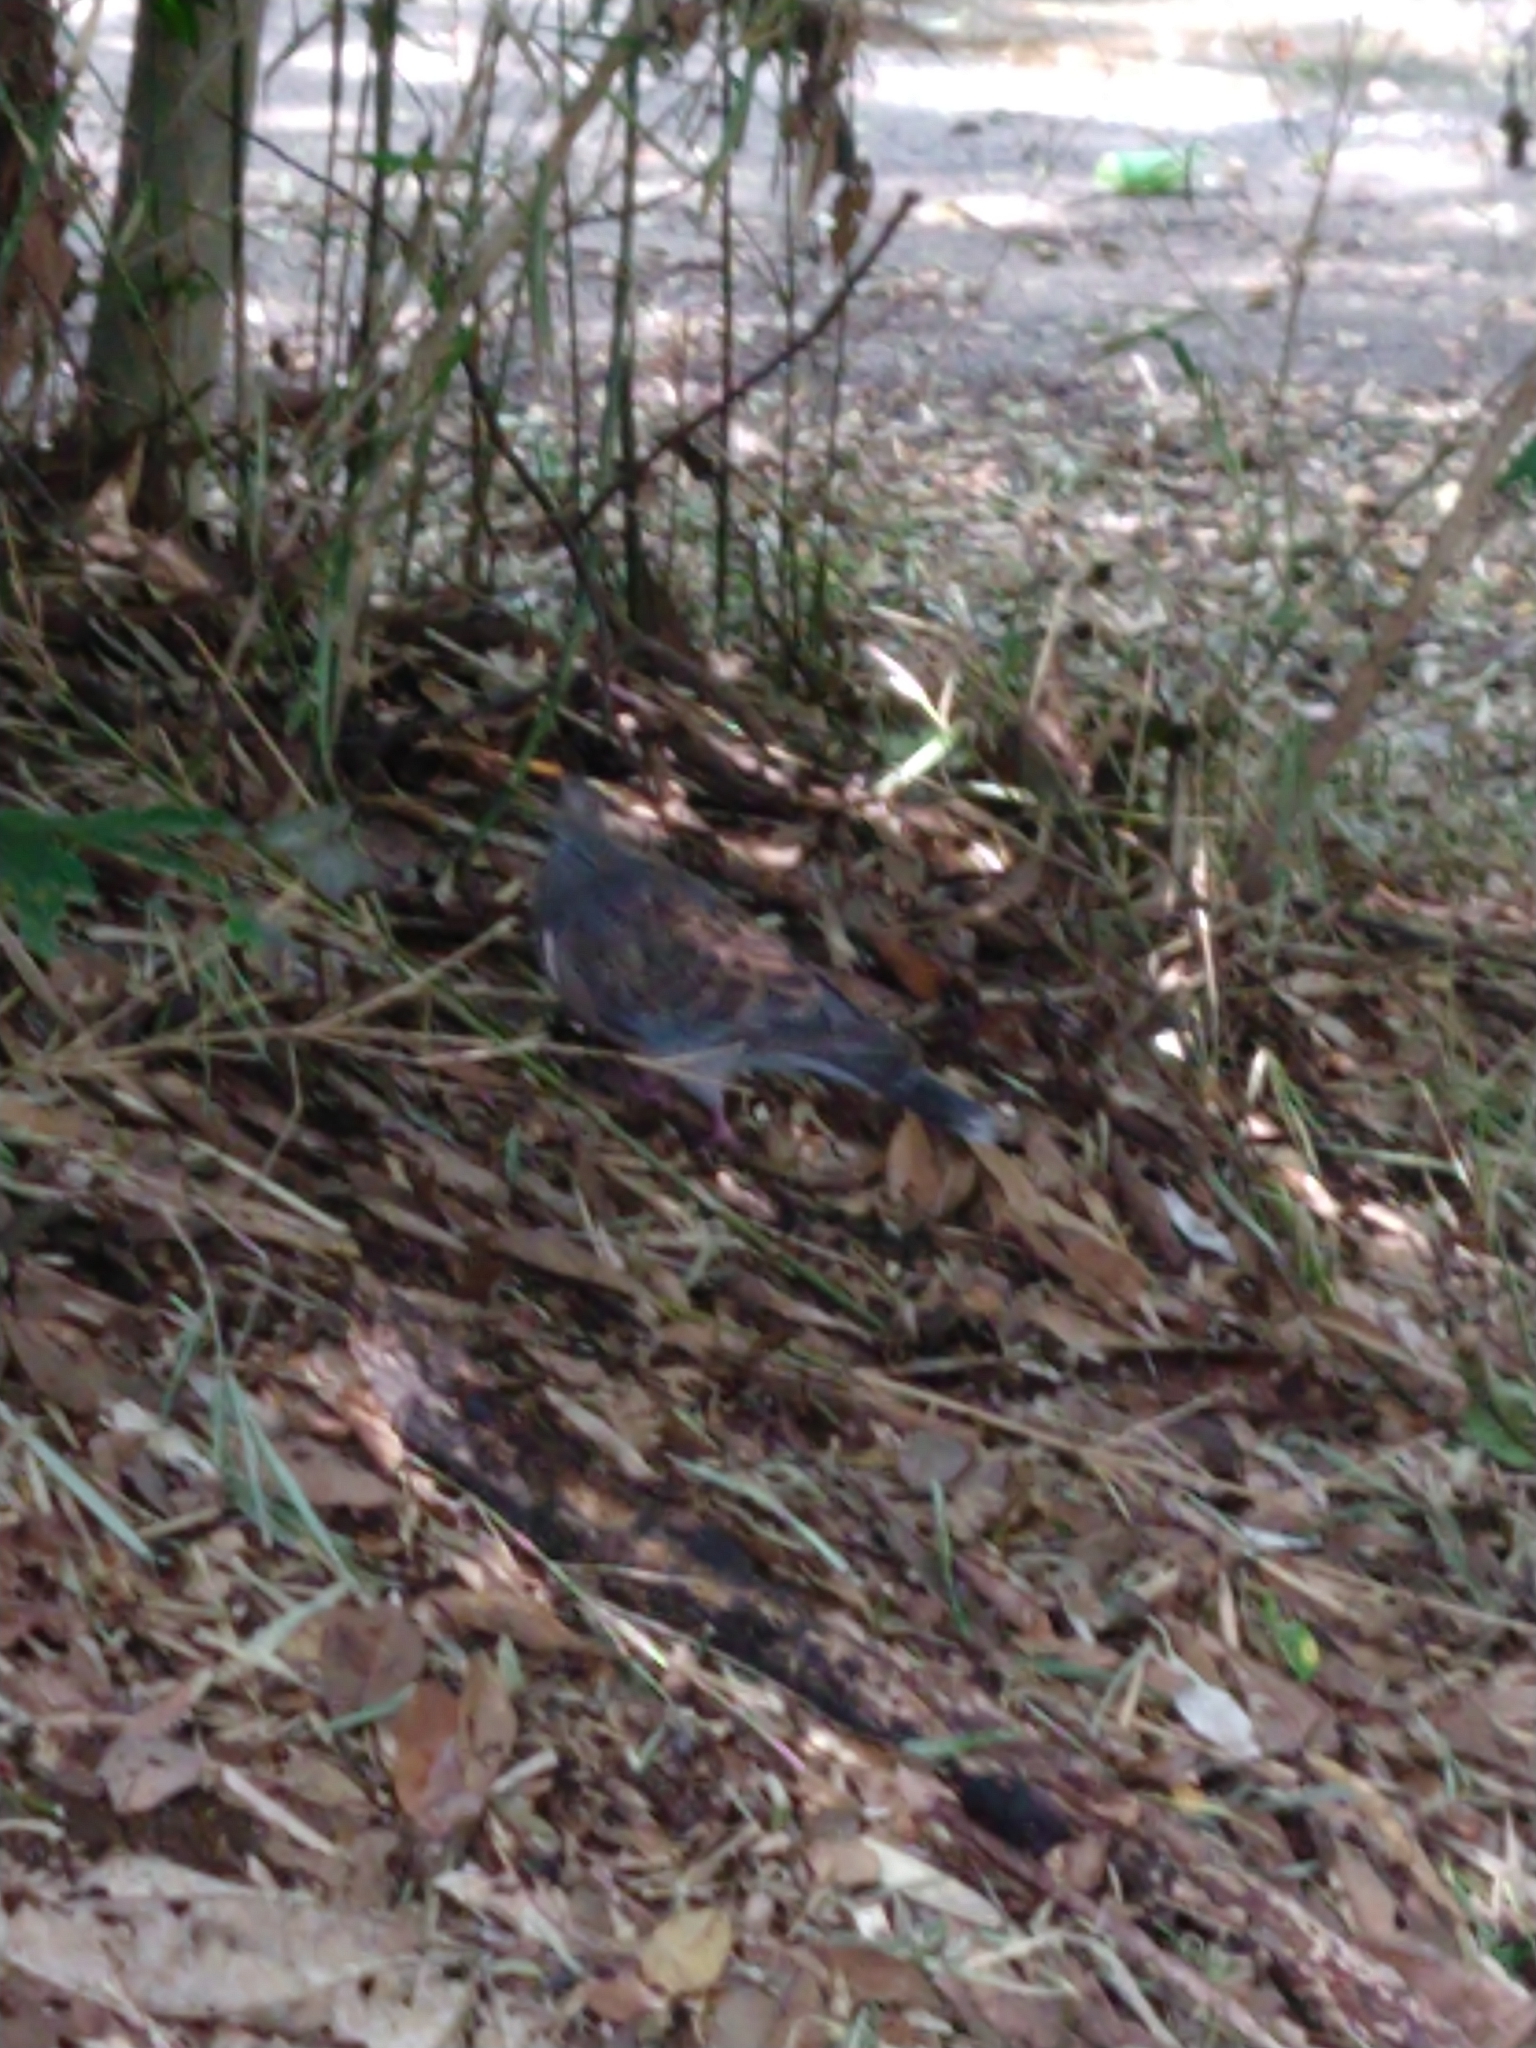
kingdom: Animalia
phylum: Chordata
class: Aves
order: Columbiformes
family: Columbidae
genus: Streptopelia
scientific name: Streptopelia orientalis
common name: Oriental turtle dove
